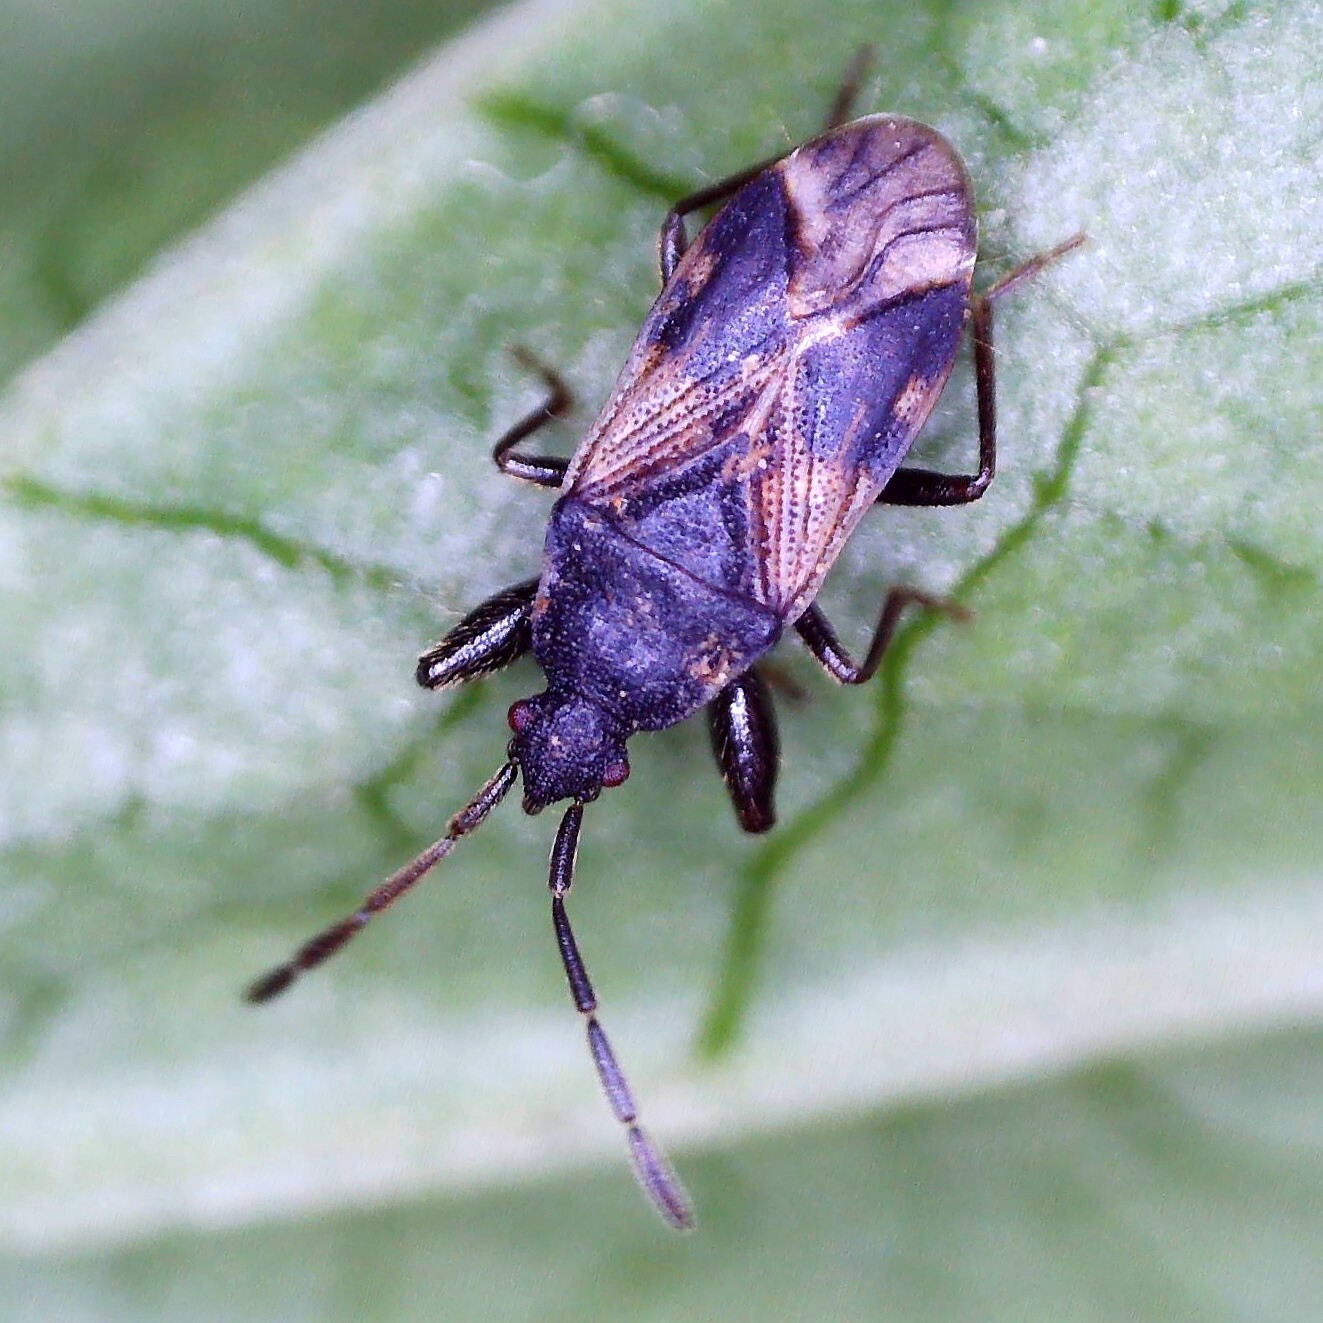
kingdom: Animalia
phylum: Arthropoda
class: Insecta
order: Hemiptera
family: Rhyparochromidae
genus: Taphropeltus
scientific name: Taphropeltus contractus
